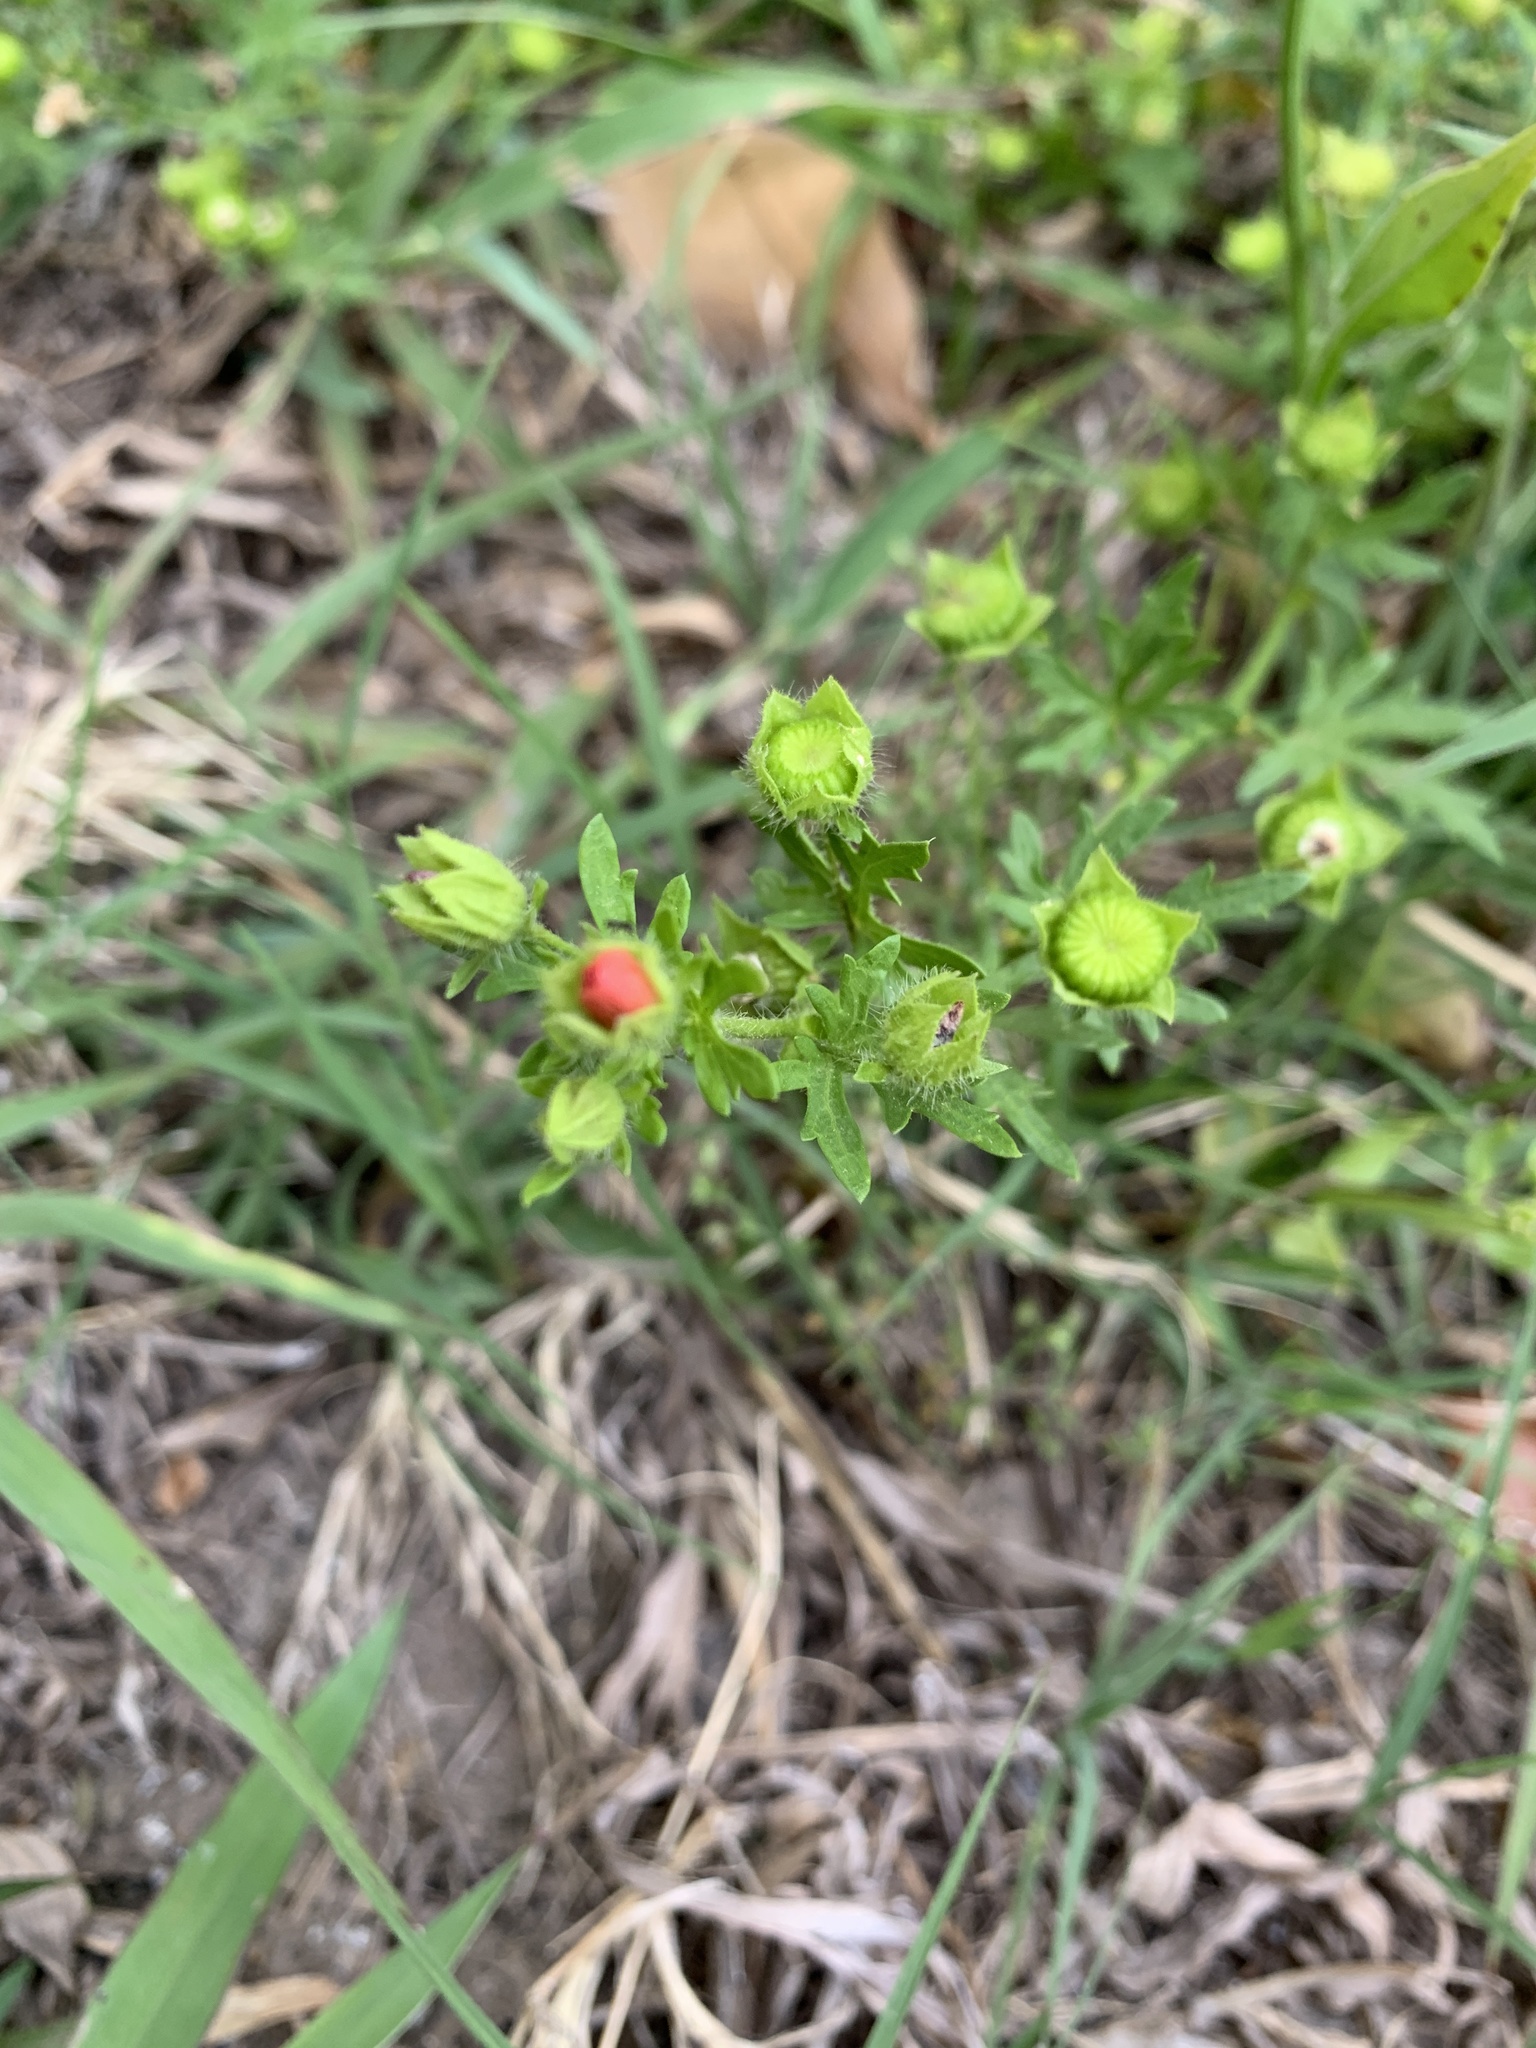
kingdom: Plantae
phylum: Tracheophyta
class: Magnoliopsida
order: Malvales
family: Malvaceae
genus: Modiola
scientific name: Modiola caroliniana
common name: Carolina bristlemallow
